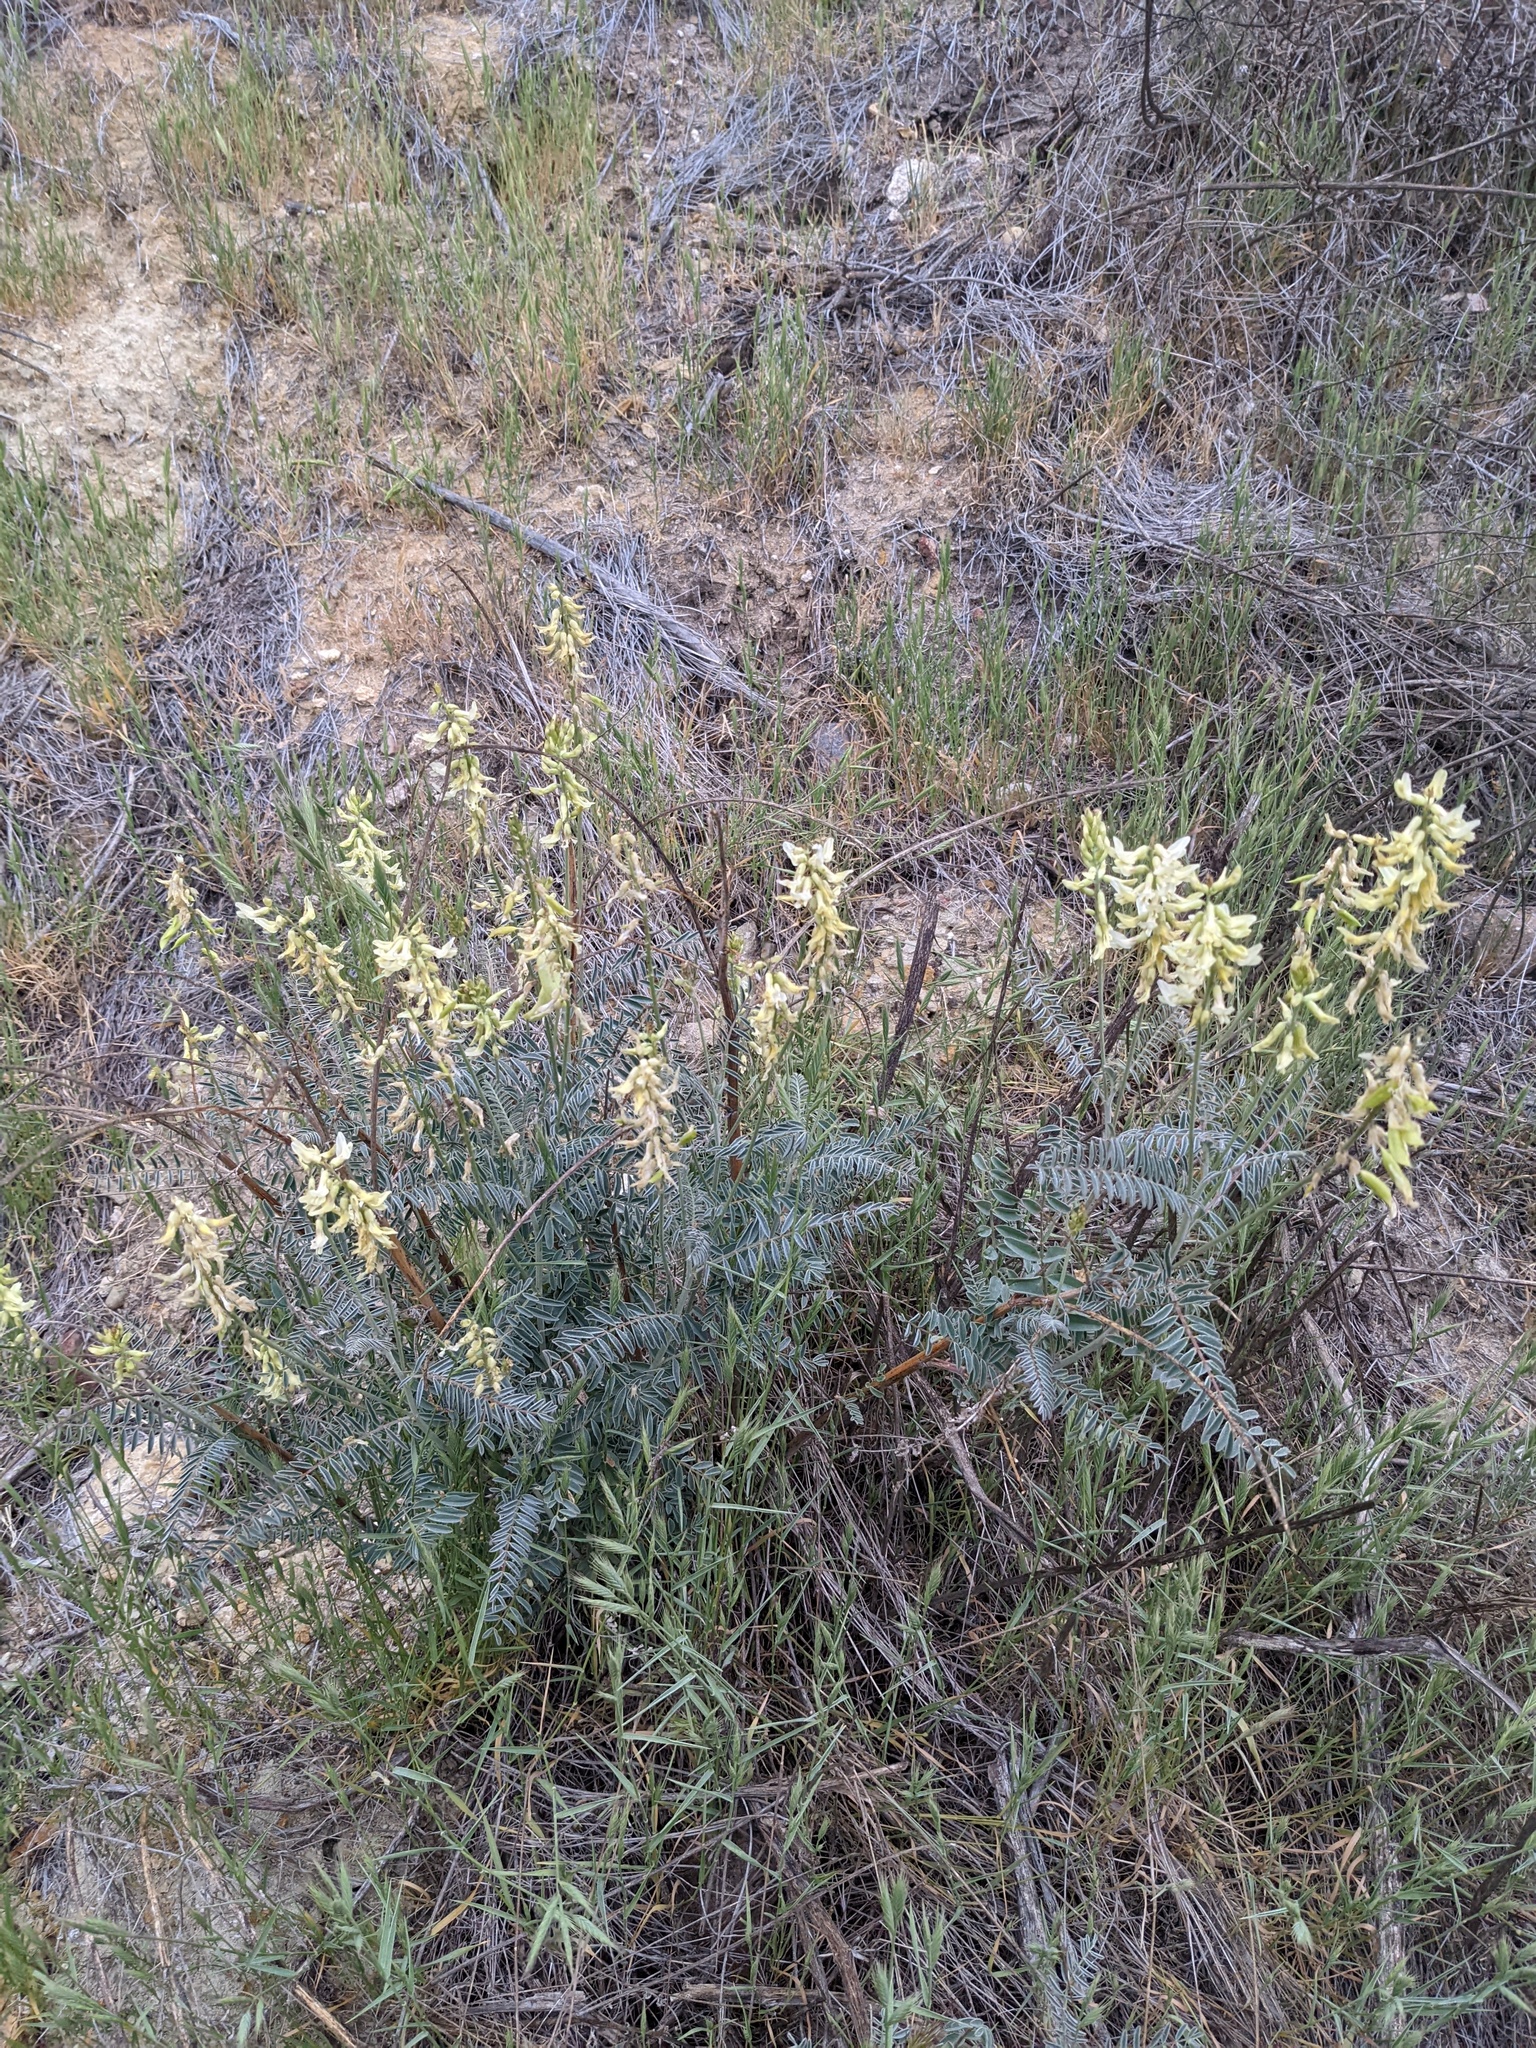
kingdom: Plantae
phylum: Tracheophyta
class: Magnoliopsida
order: Fabales
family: Fabaceae
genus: Astragalus
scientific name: Astragalus trichopodus
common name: Santa barbara milk-vetch
